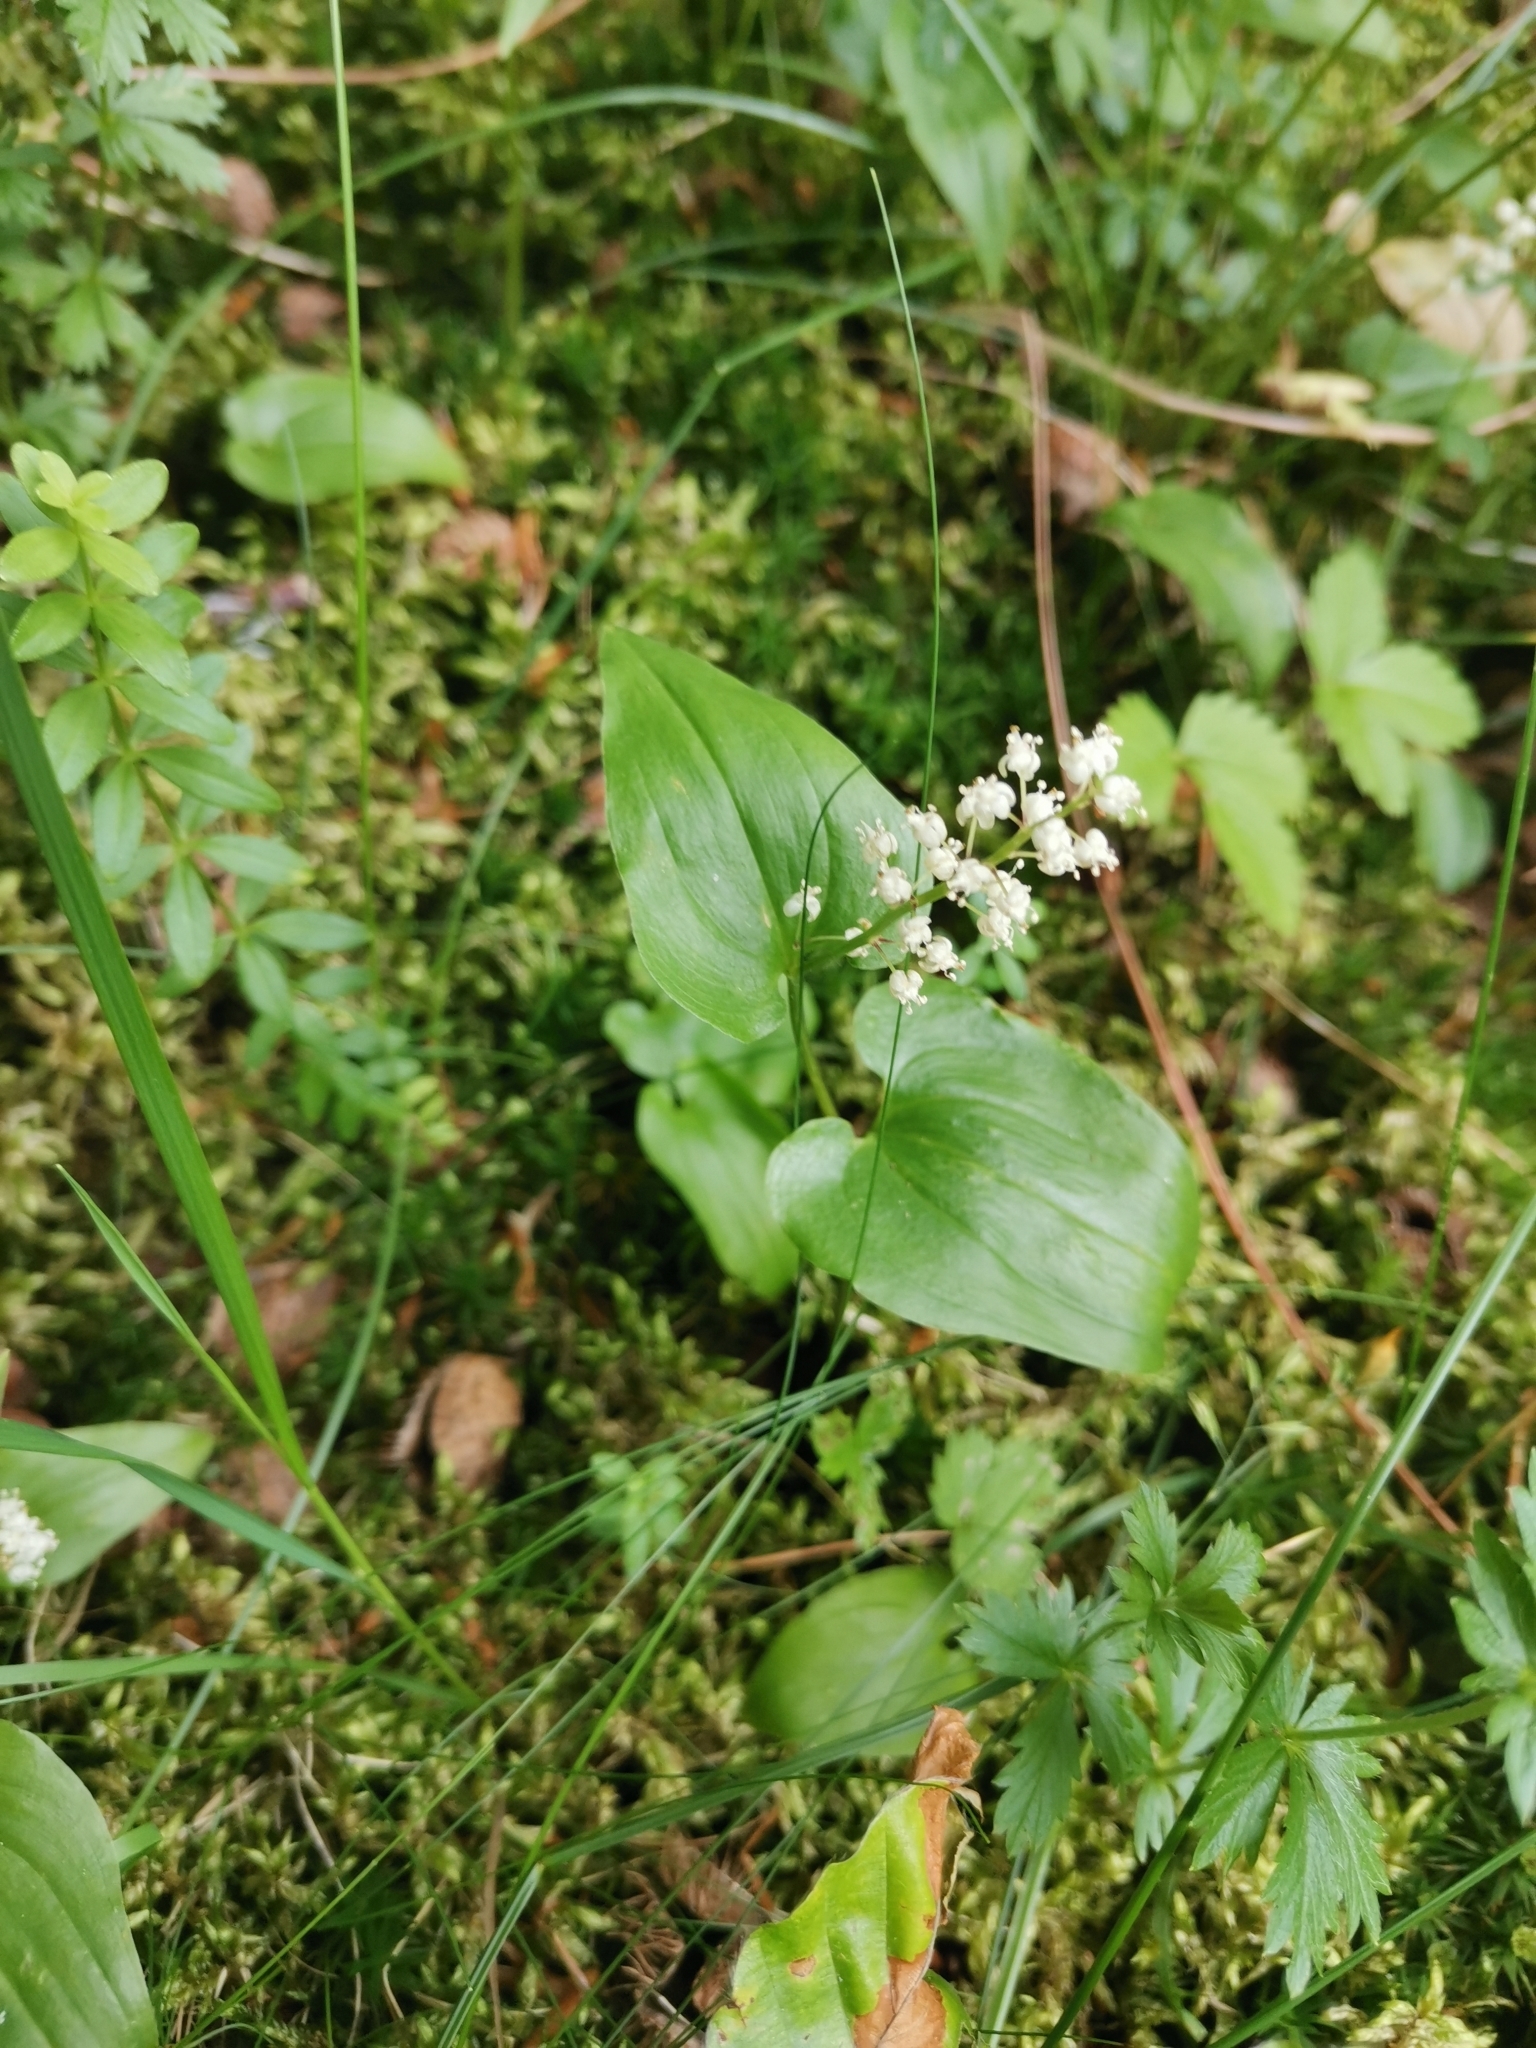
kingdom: Plantae
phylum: Tracheophyta
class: Liliopsida
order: Asparagales
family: Asparagaceae
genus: Maianthemum
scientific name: Maianthemum bifolium
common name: May lily
